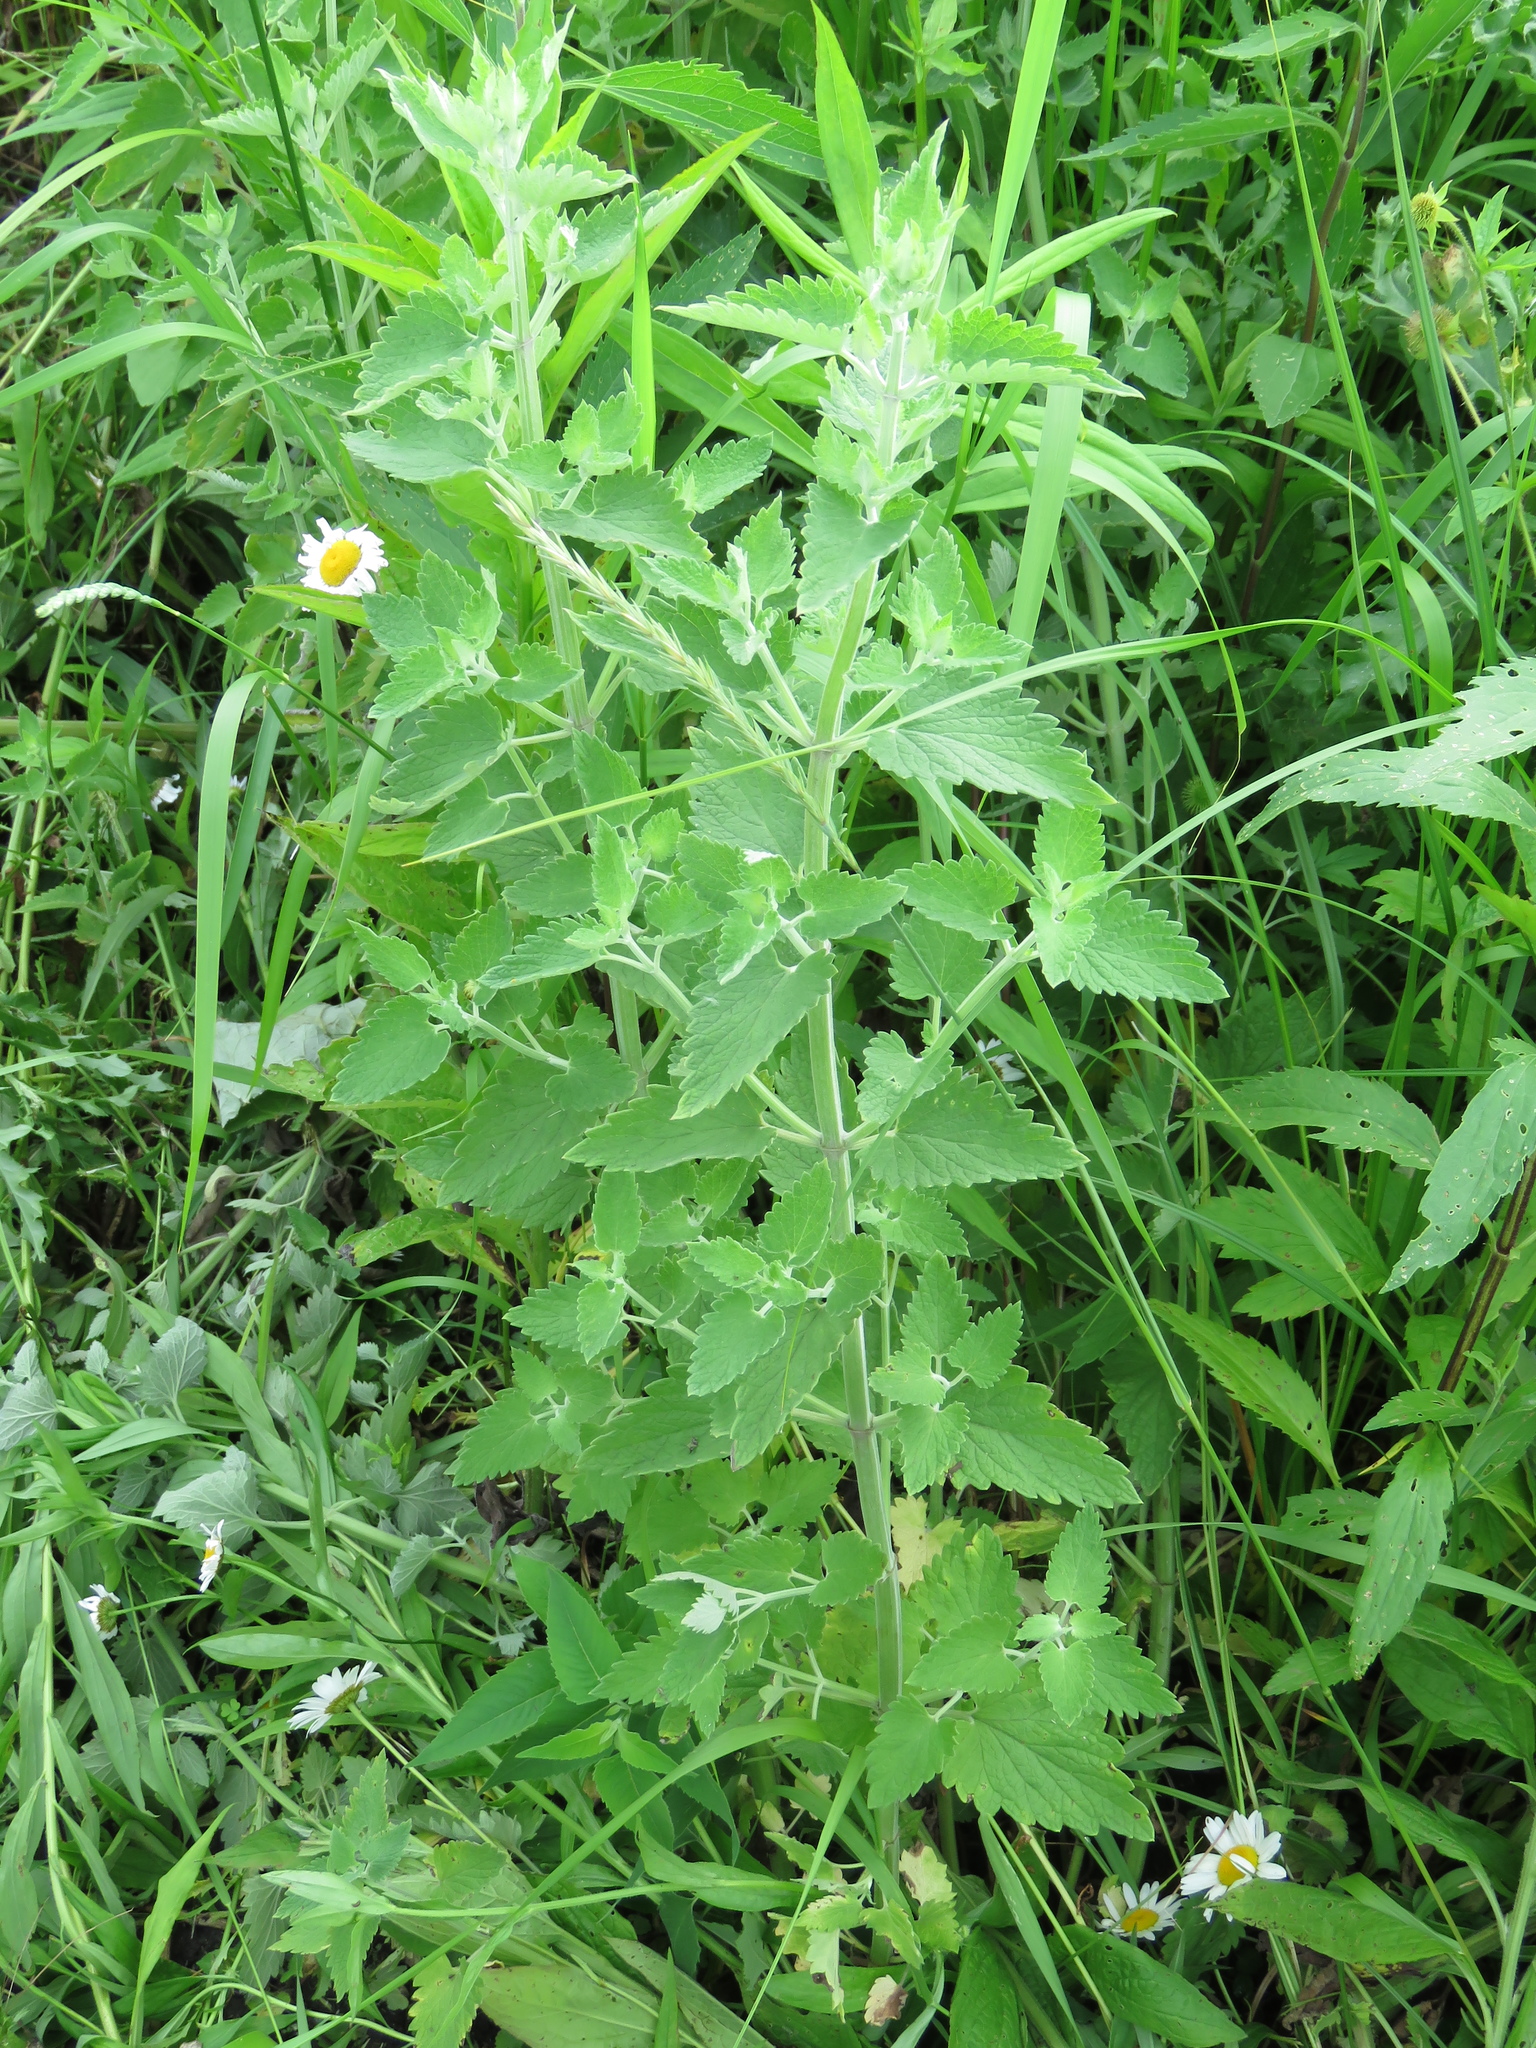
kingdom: Plantae
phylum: Tracheophyta
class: Magnoliopsida
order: Lamiales
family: Lamiaceae
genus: Nepeta
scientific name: Nepeta cataria
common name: Catnip
